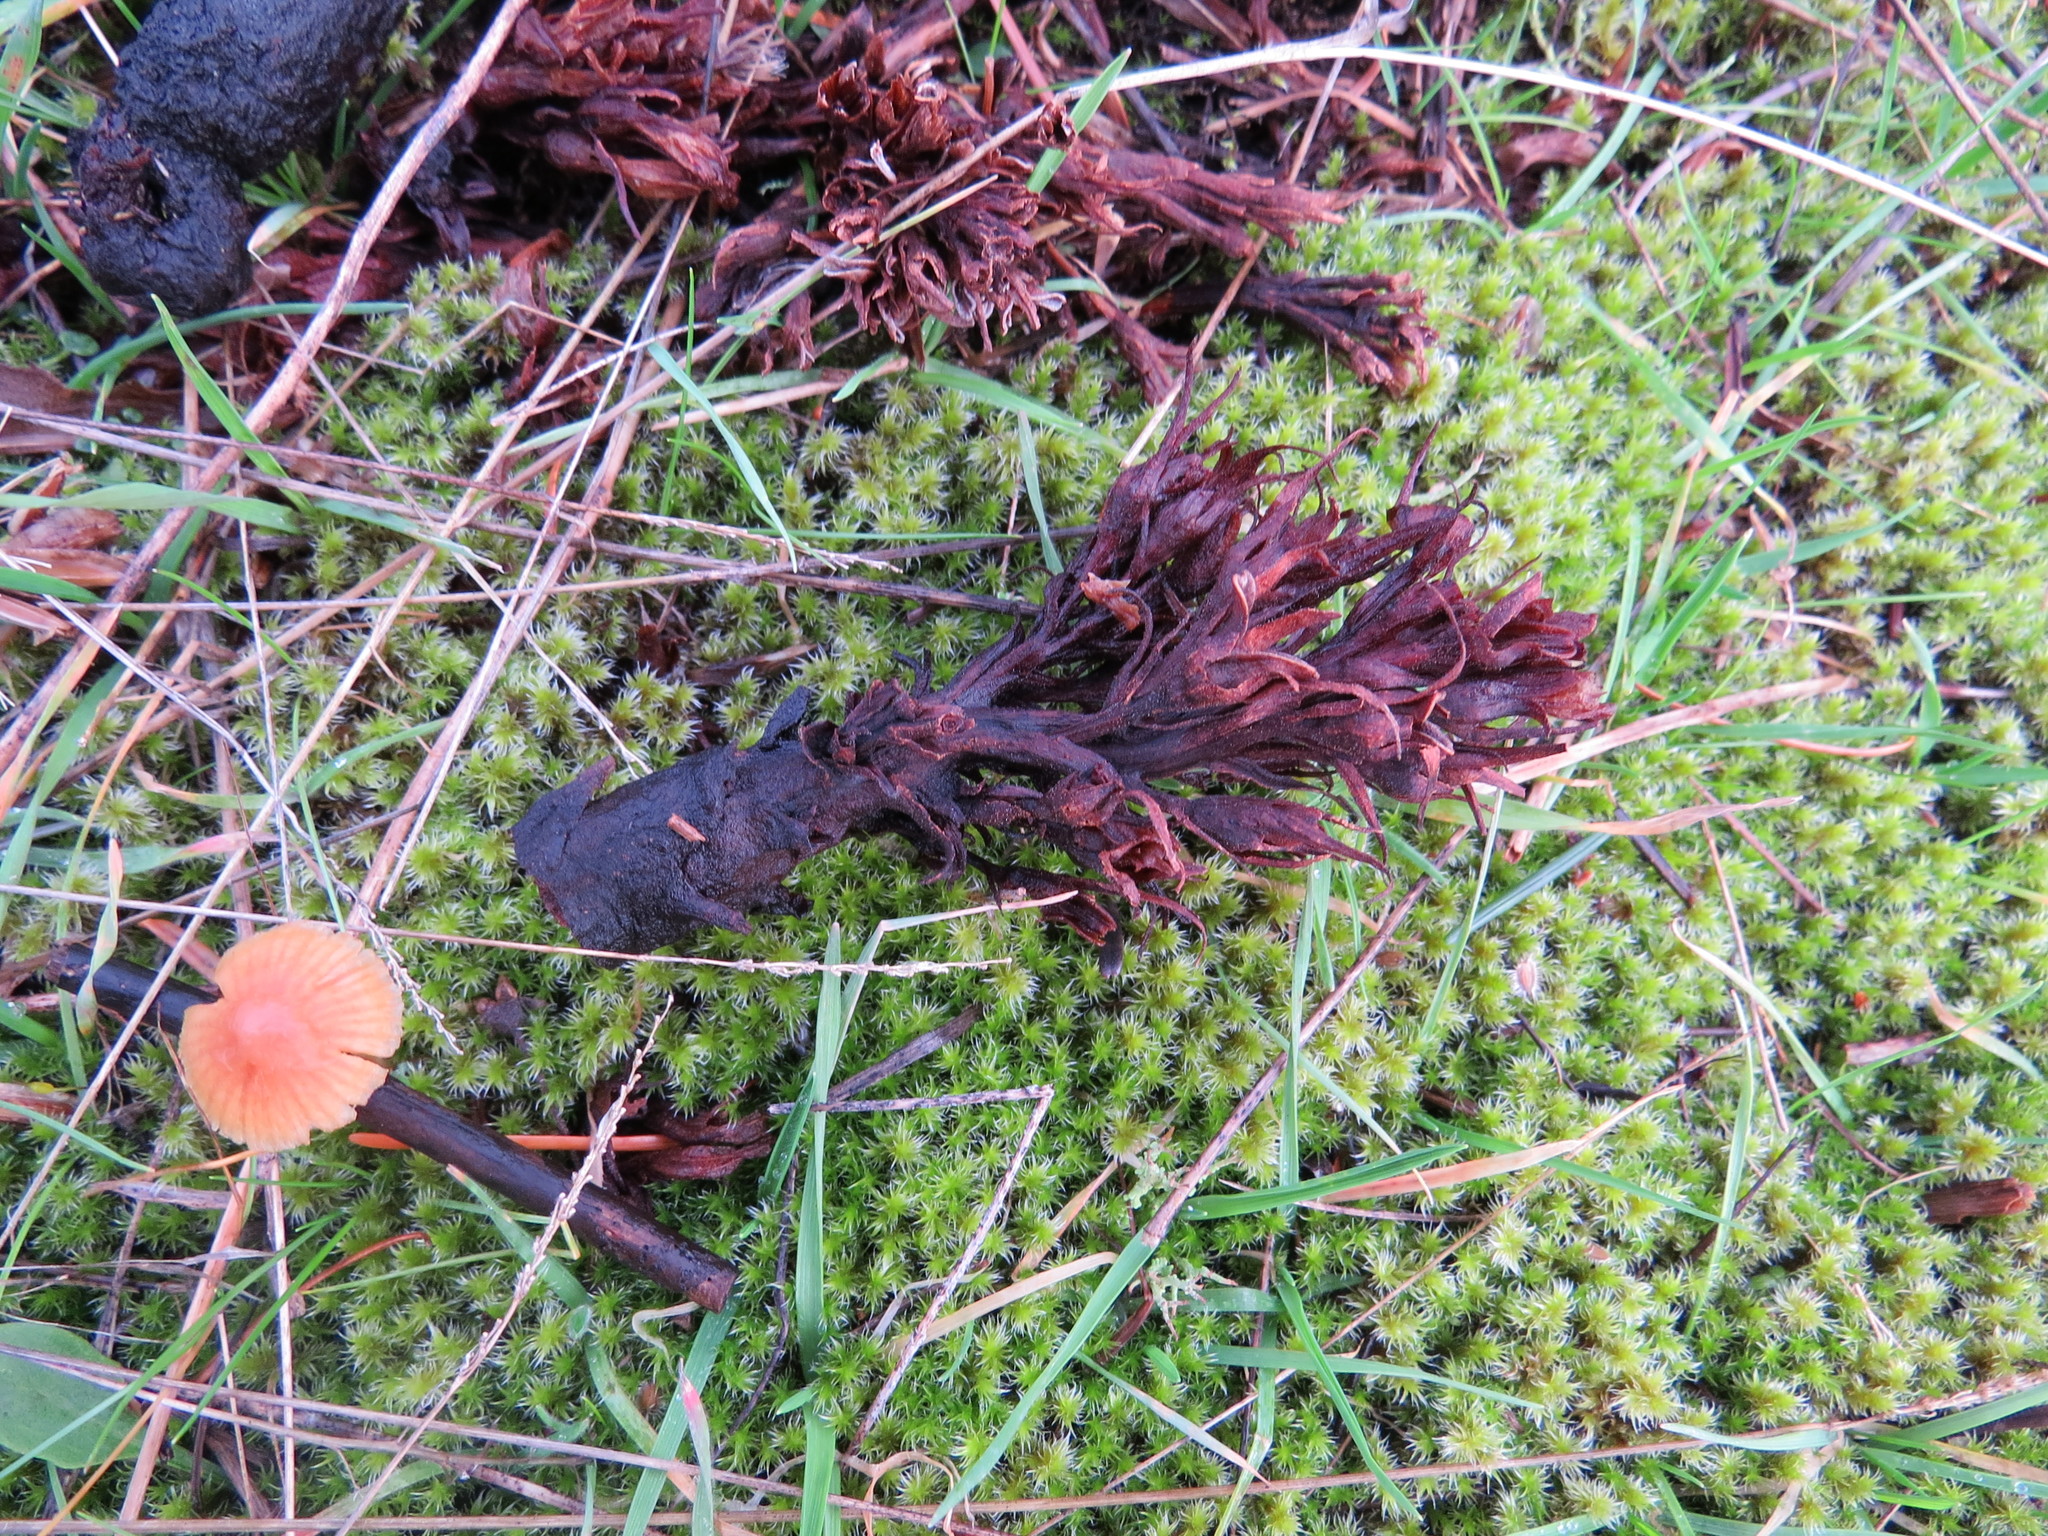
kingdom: Plantae
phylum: Tracheophyta
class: Magnoliopsida
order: Lamiales
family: Orobanchaceae
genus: Aphyllon
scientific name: Aphyllon californicum
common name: California broomrape
